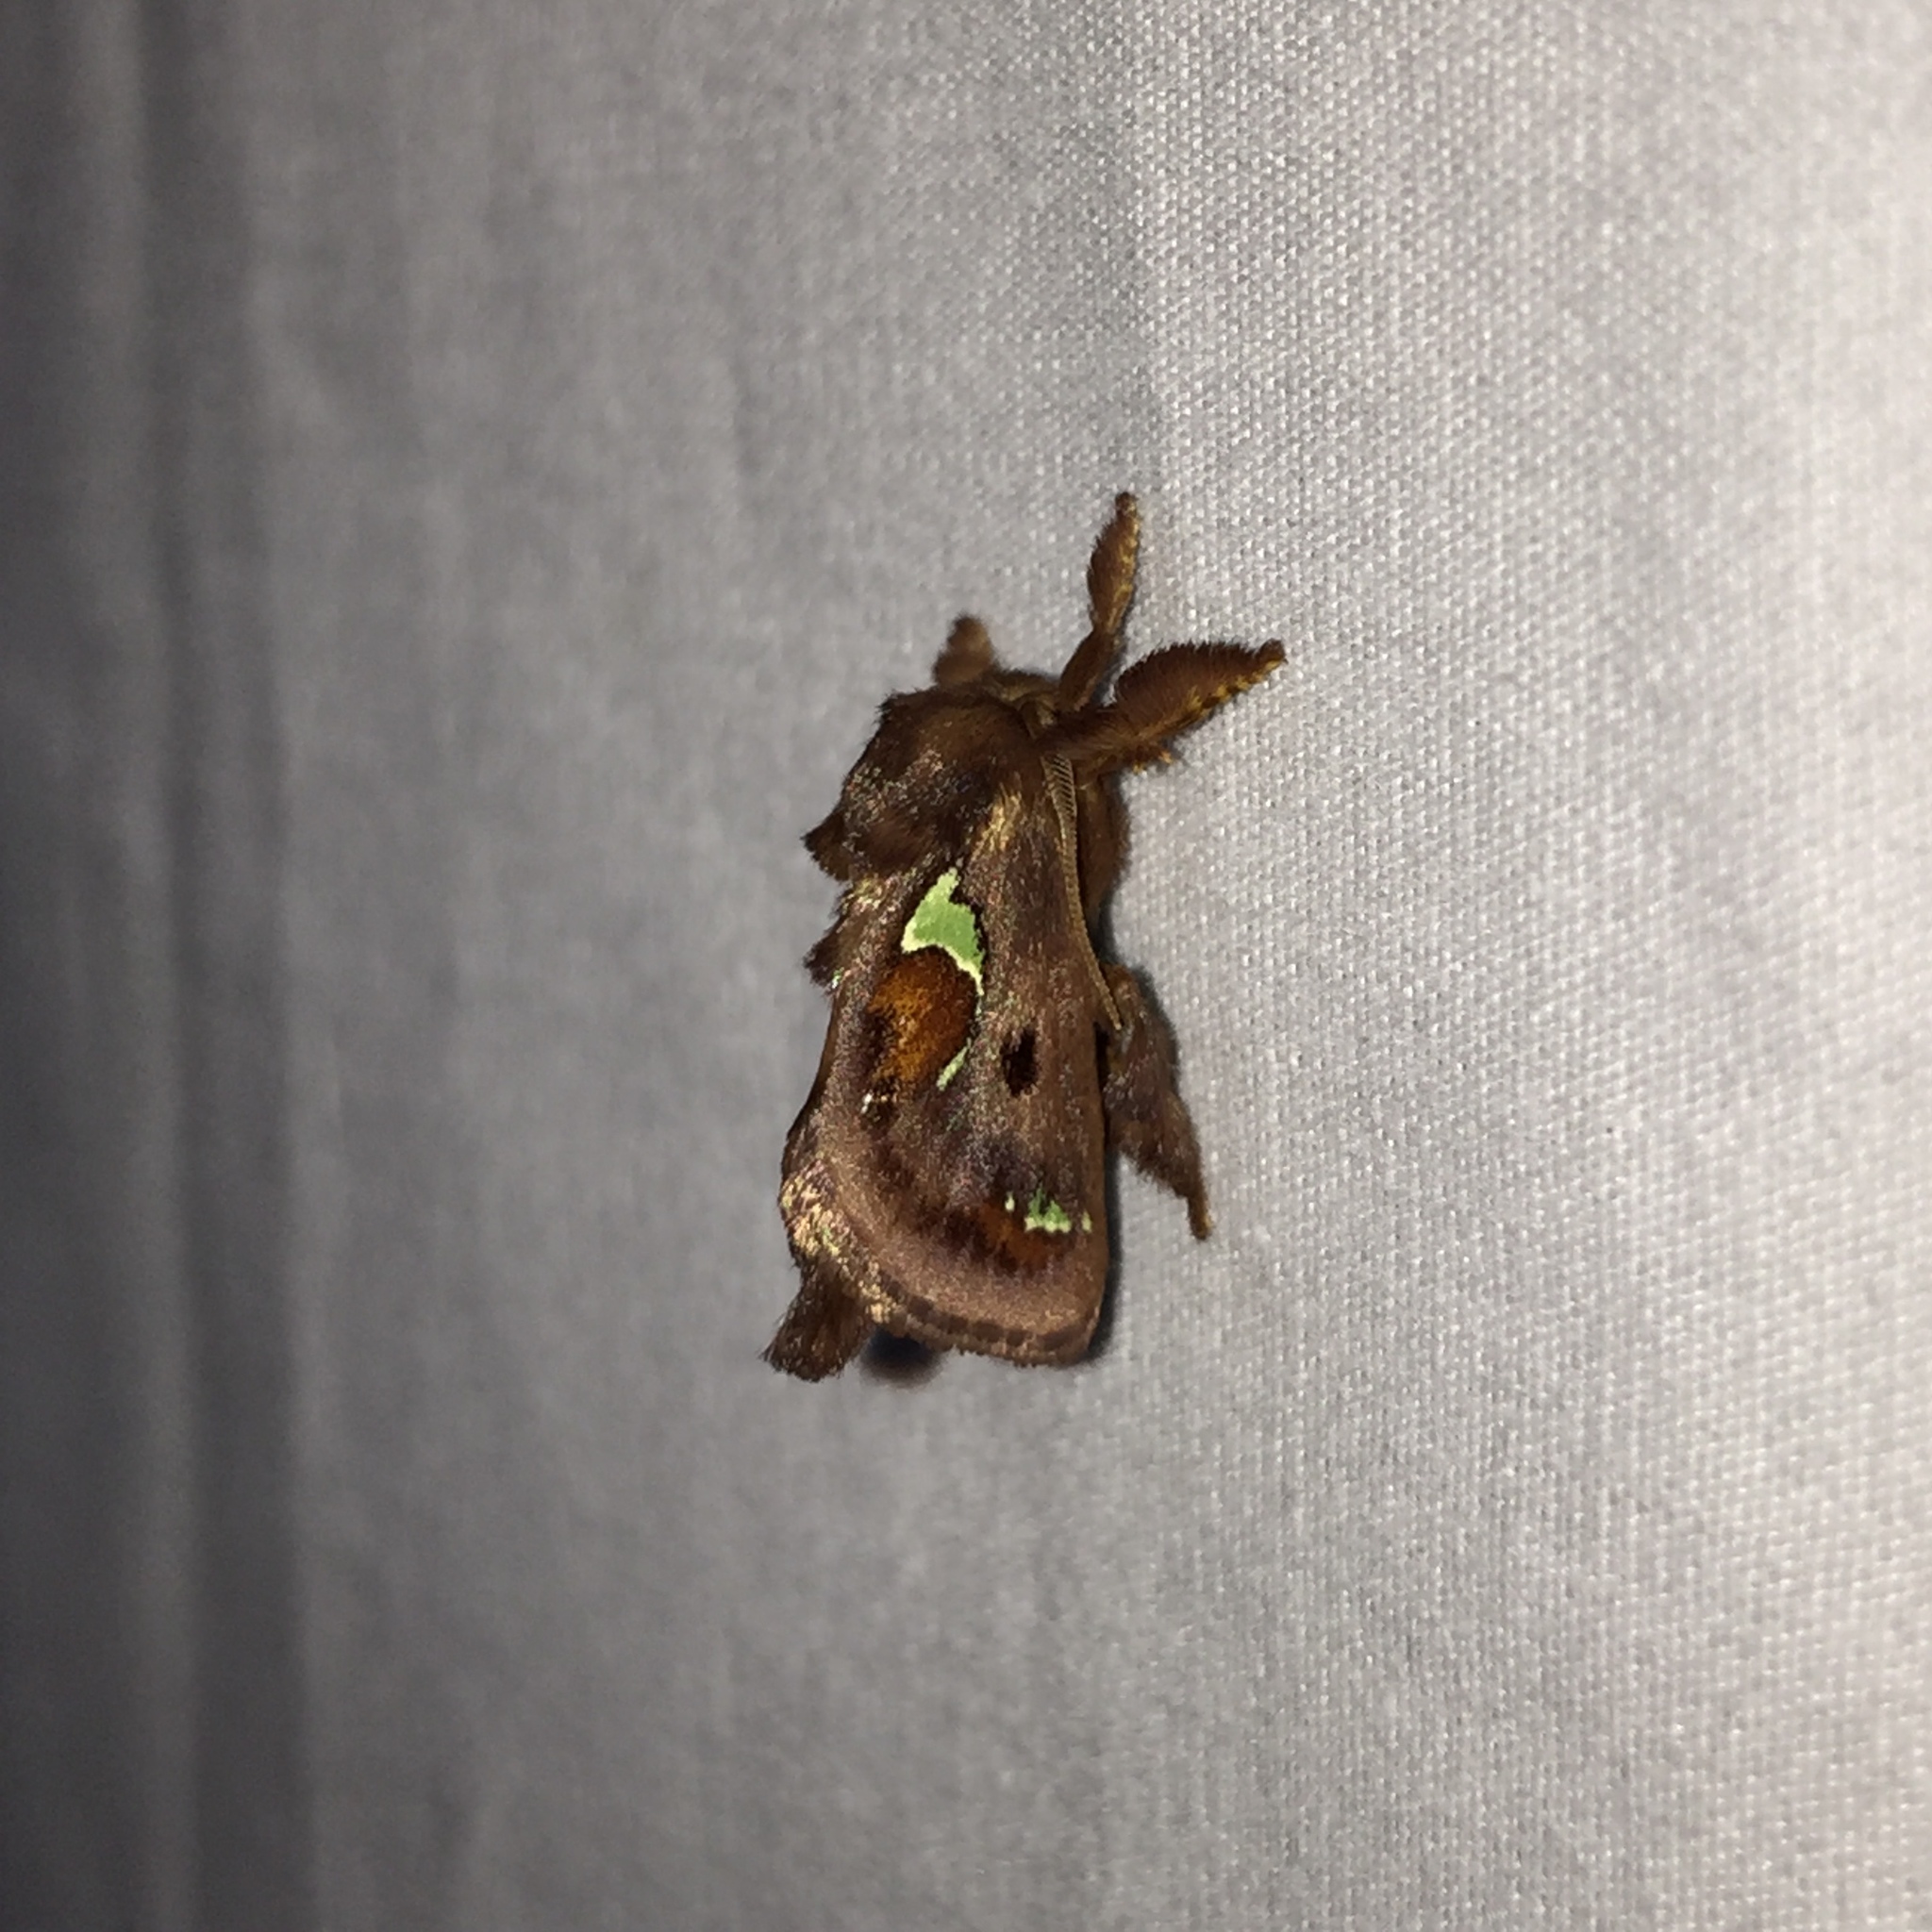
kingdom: Animalia
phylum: Arthropoda
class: Insecta
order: Lepidoptera
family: Limacodidae
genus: Euclea
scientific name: Euclea delphinii
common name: Spiny oak-slug moth
